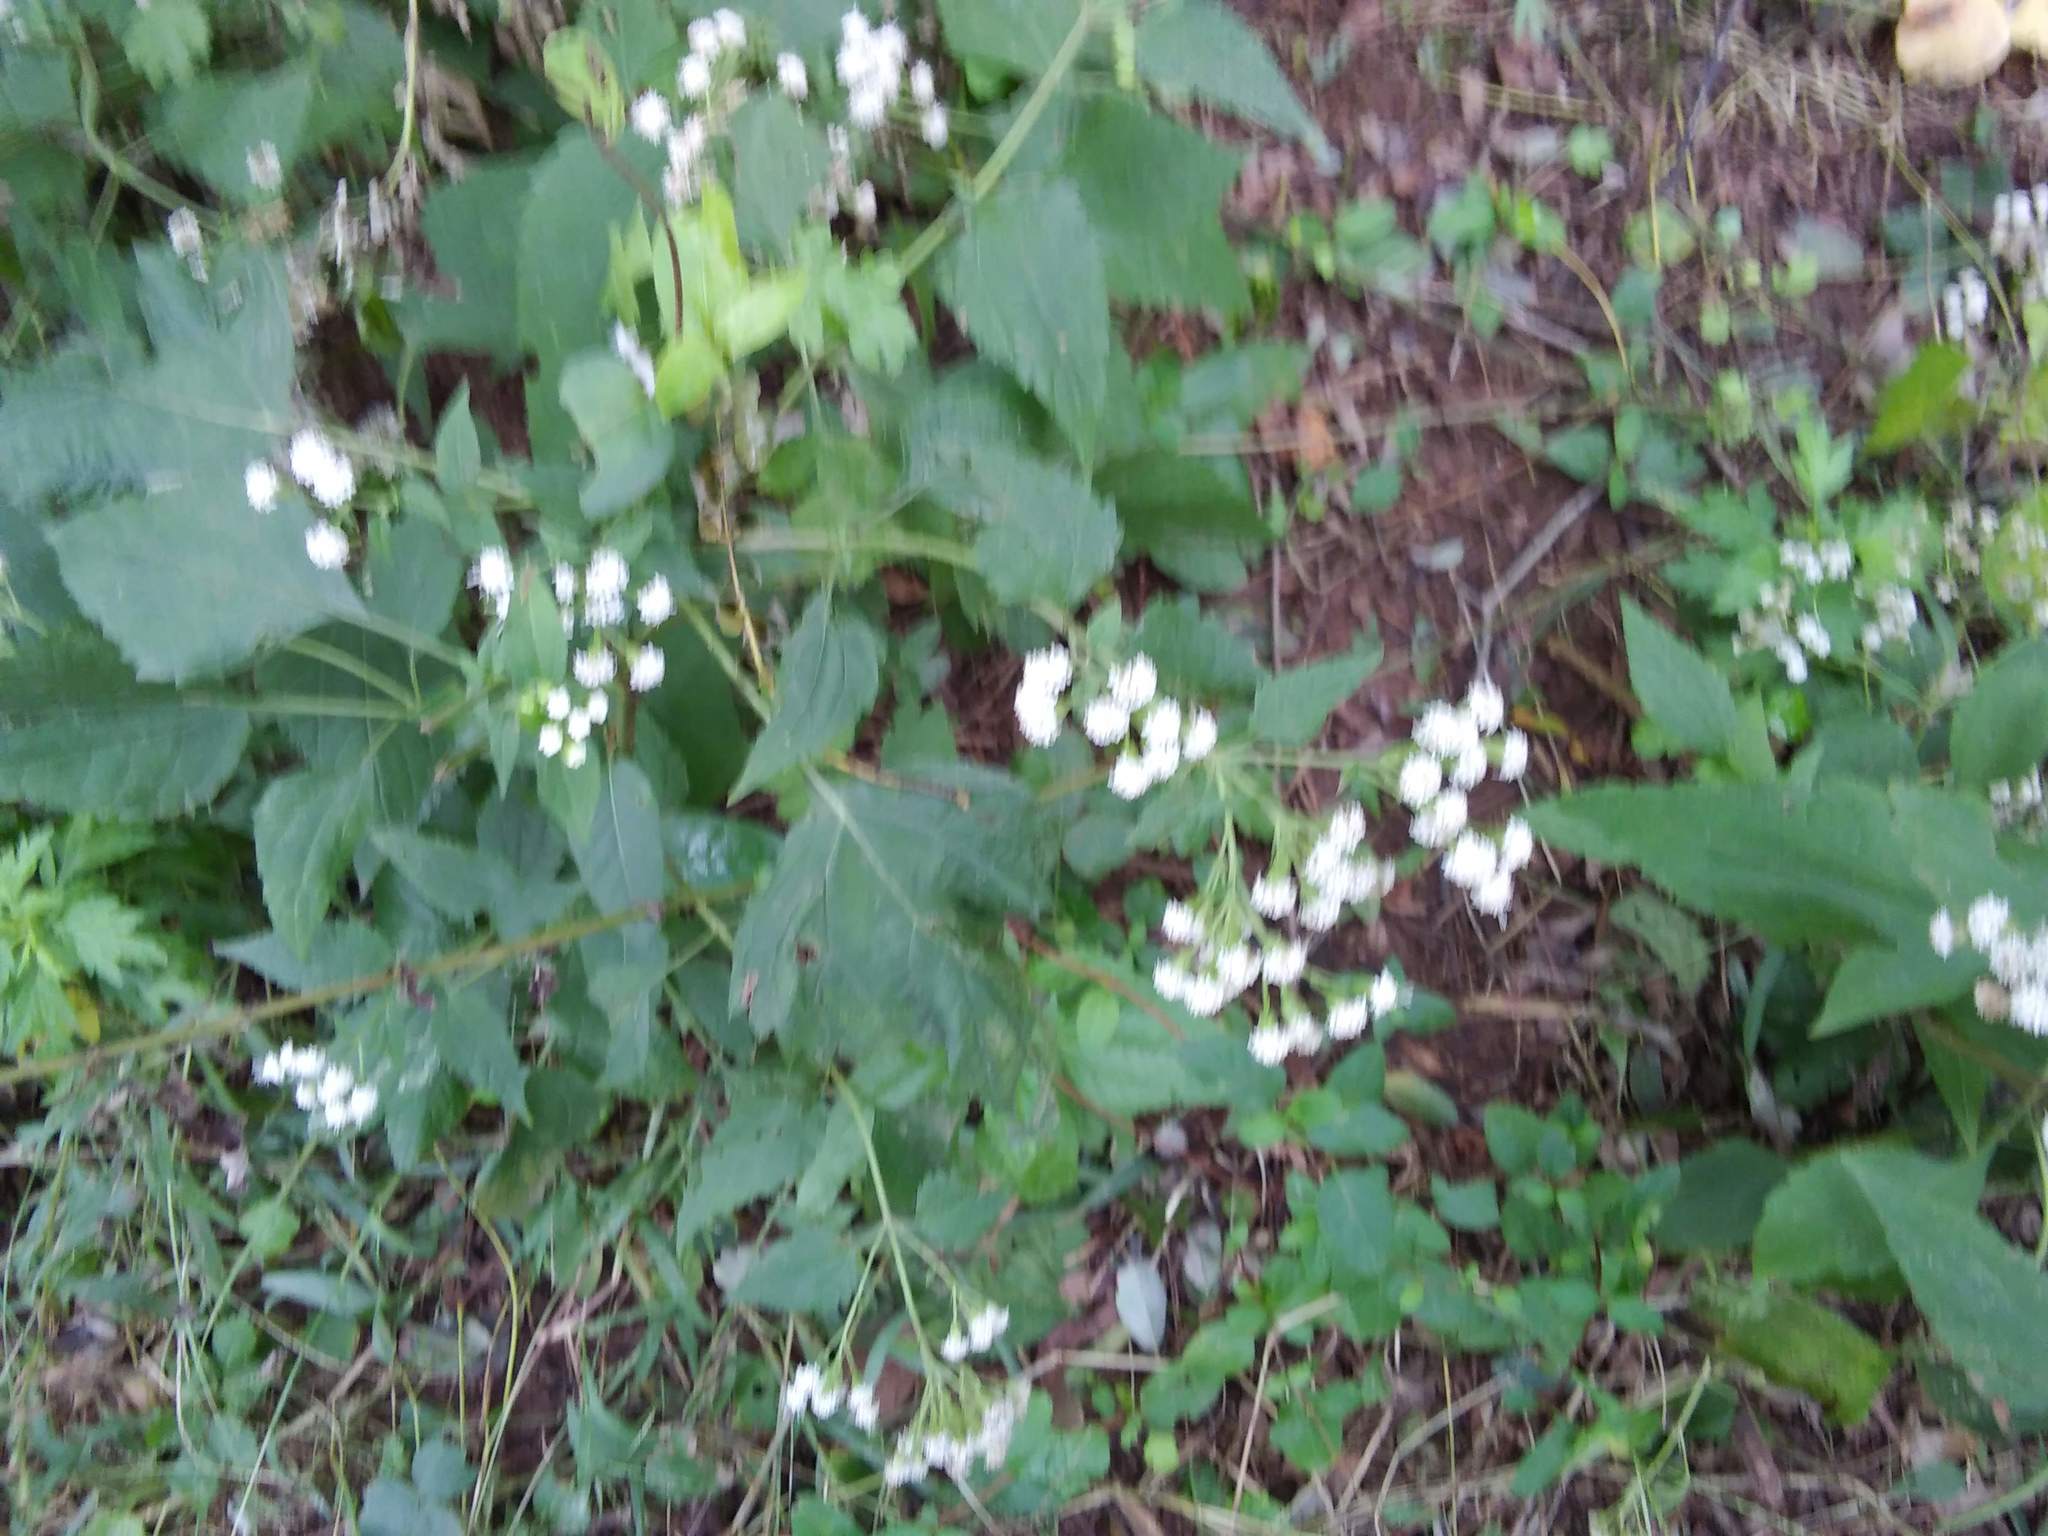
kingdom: Plantae
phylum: Tracheophyta
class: Magnoliopsida
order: Asterales
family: Asteraceae
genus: Ageratina
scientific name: Ageratina altissima
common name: White snakeroot
